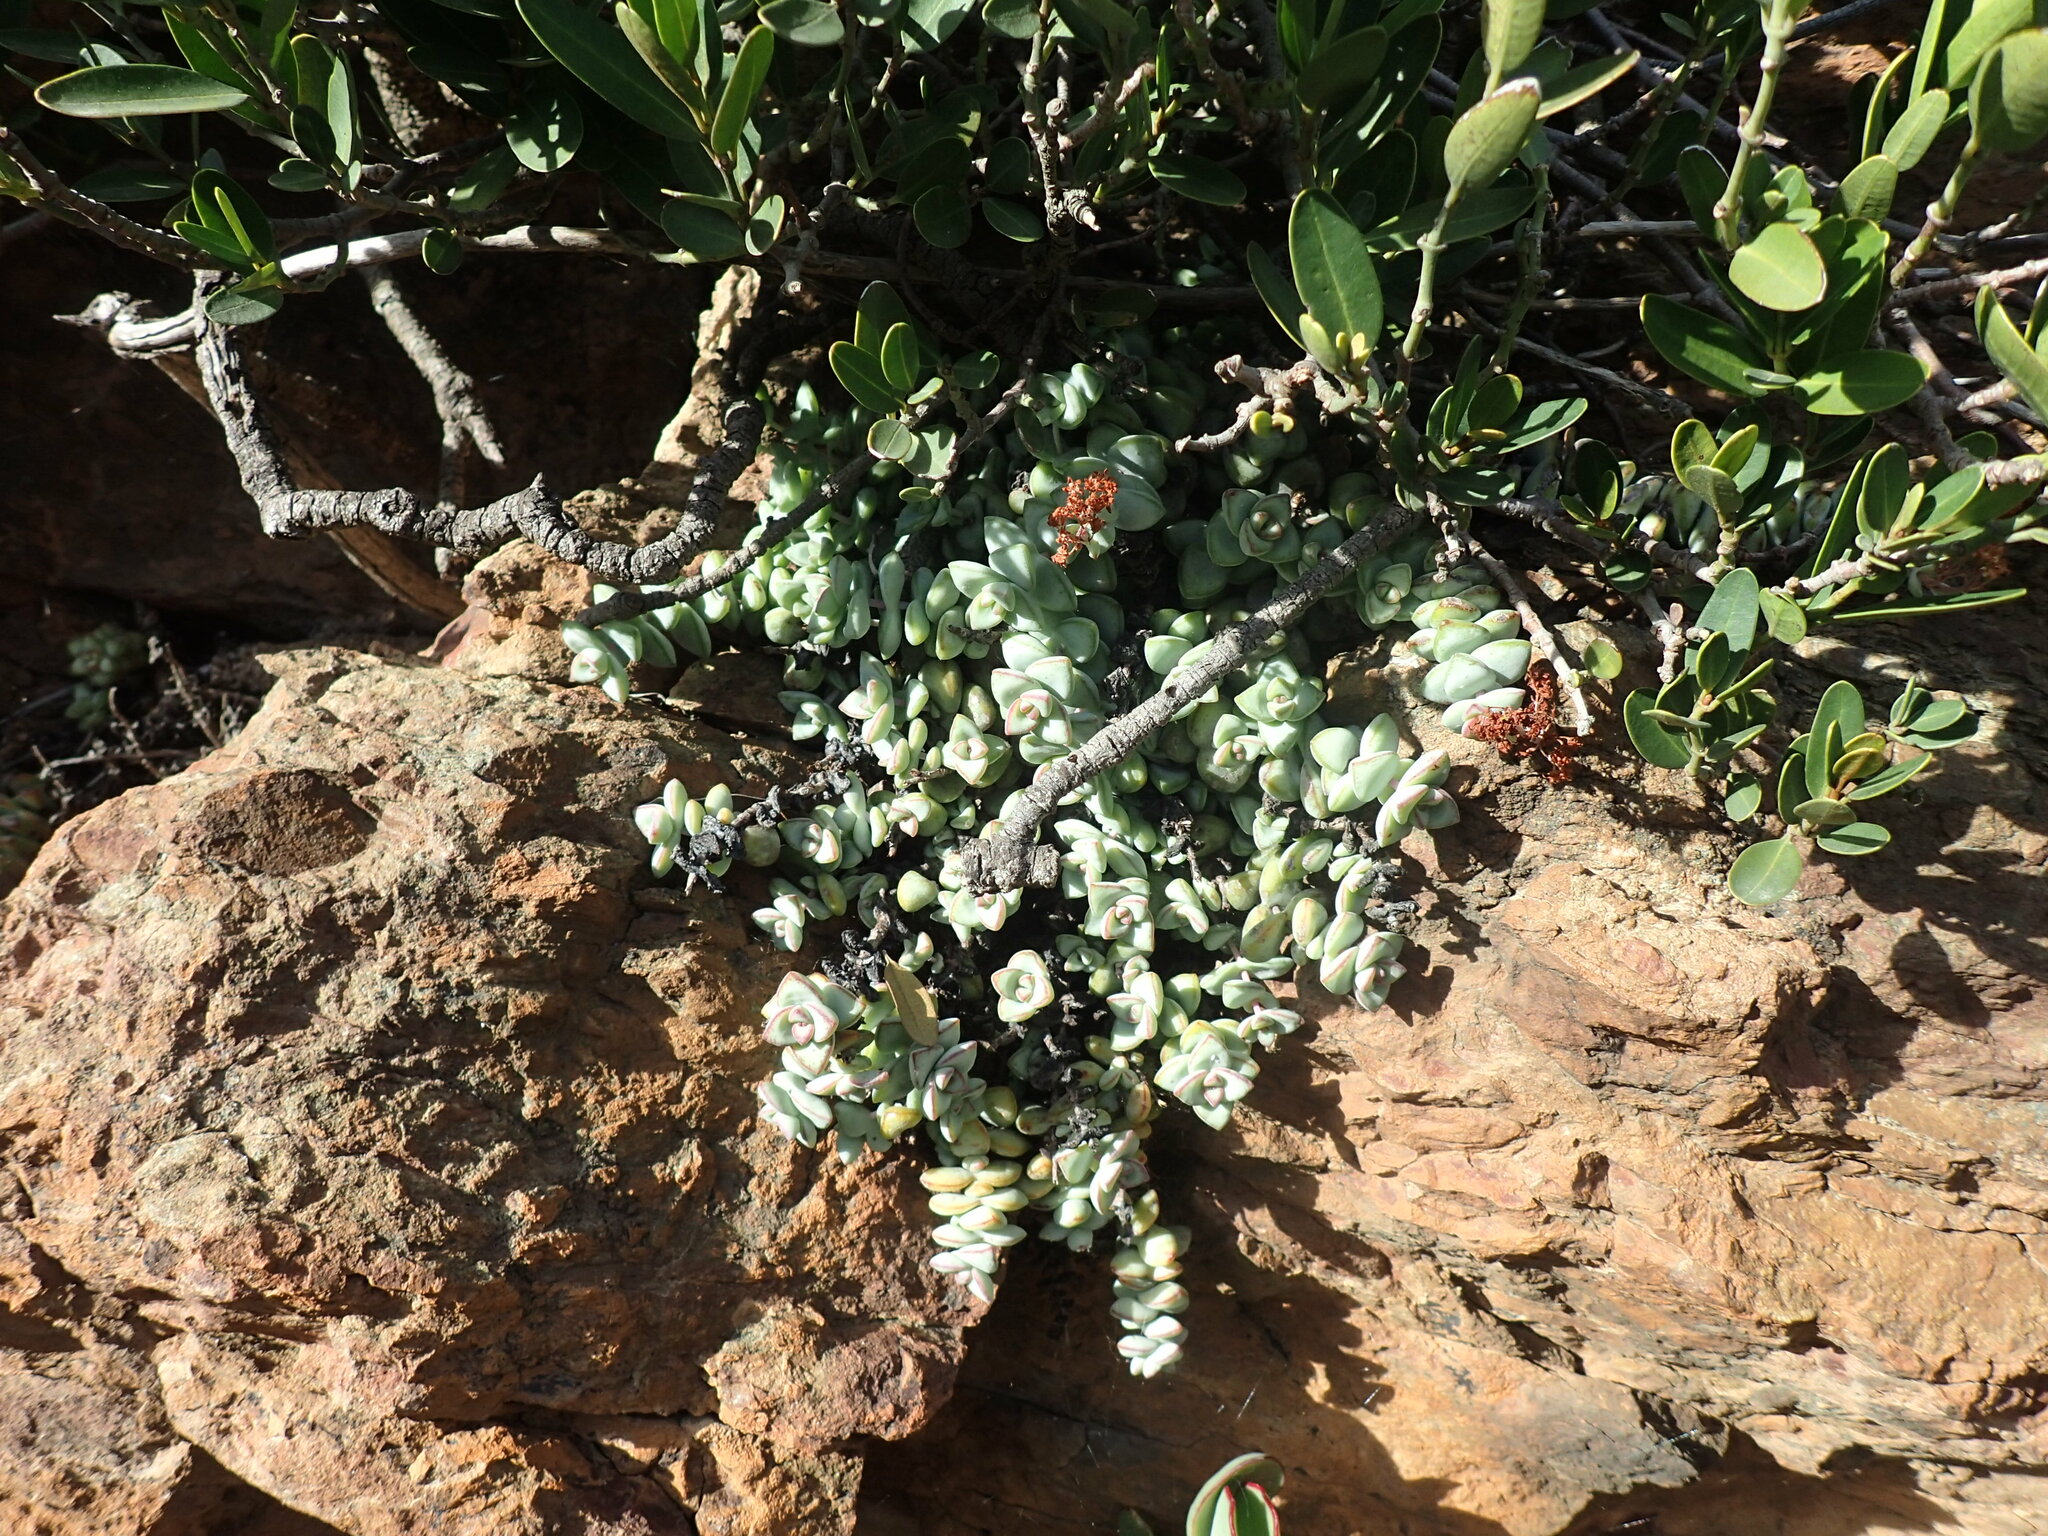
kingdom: Plantae
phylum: Tracheophyta
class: Magnoliopsida
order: Saxifragales
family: Crassulaceae
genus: Crassula
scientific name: Crassula rupestris
